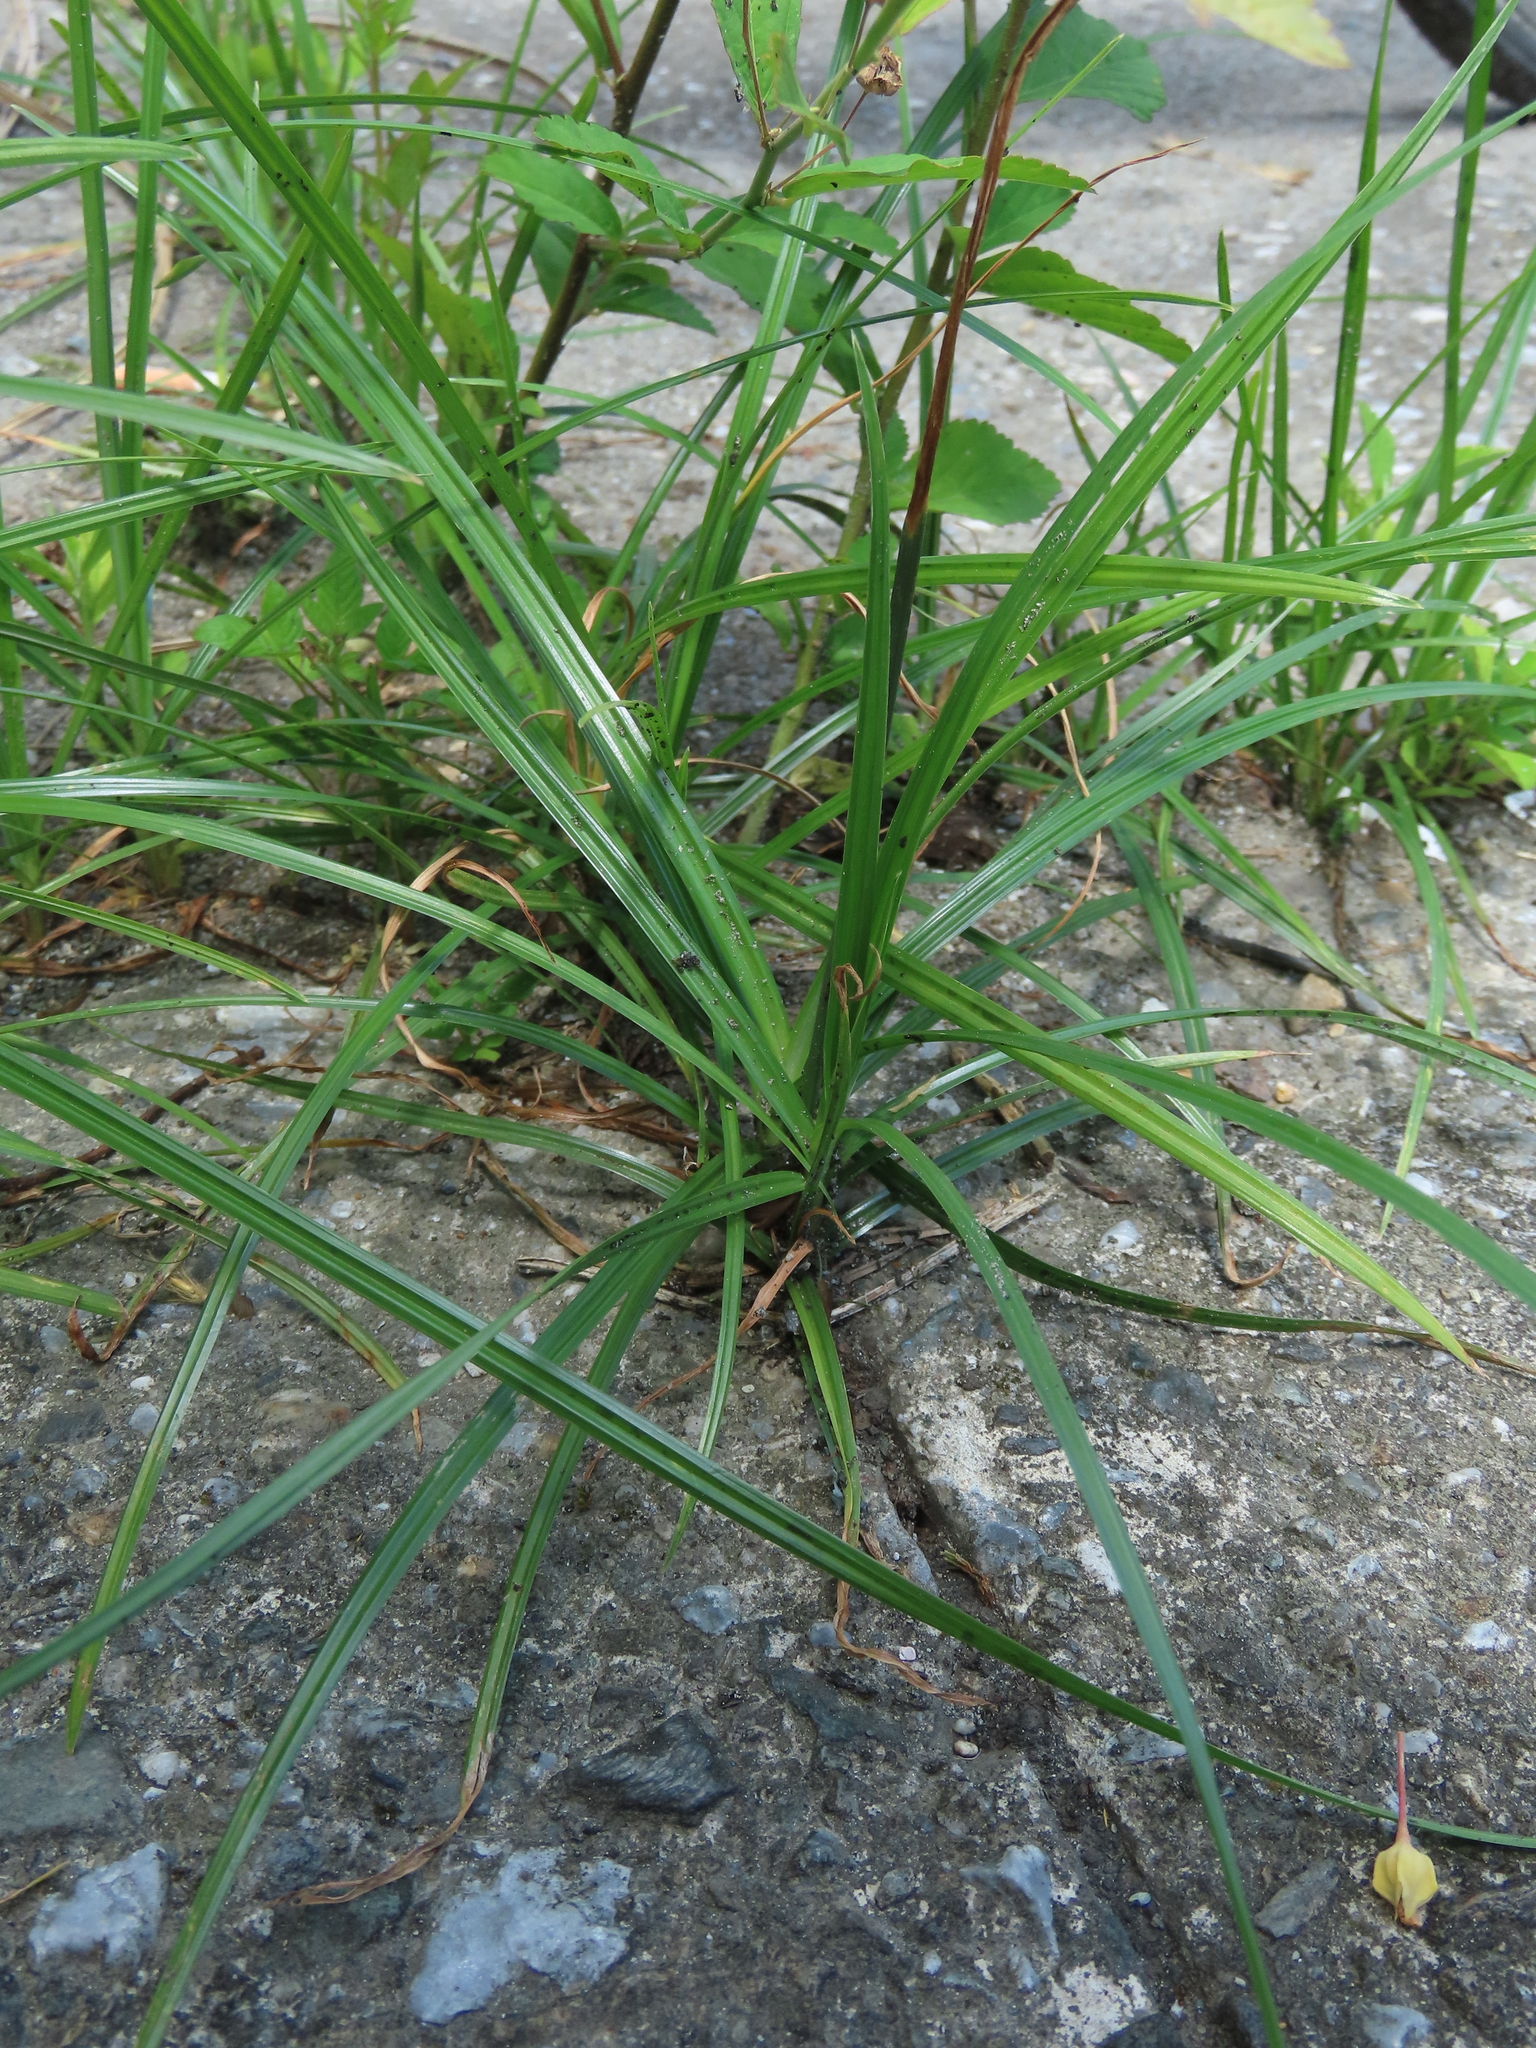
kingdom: Plantae
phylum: Tracheophyta
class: Liliopsida
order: Poales
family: Cyperaceae
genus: Cyperus
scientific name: Cyperus rotundus
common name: Nutgrass
